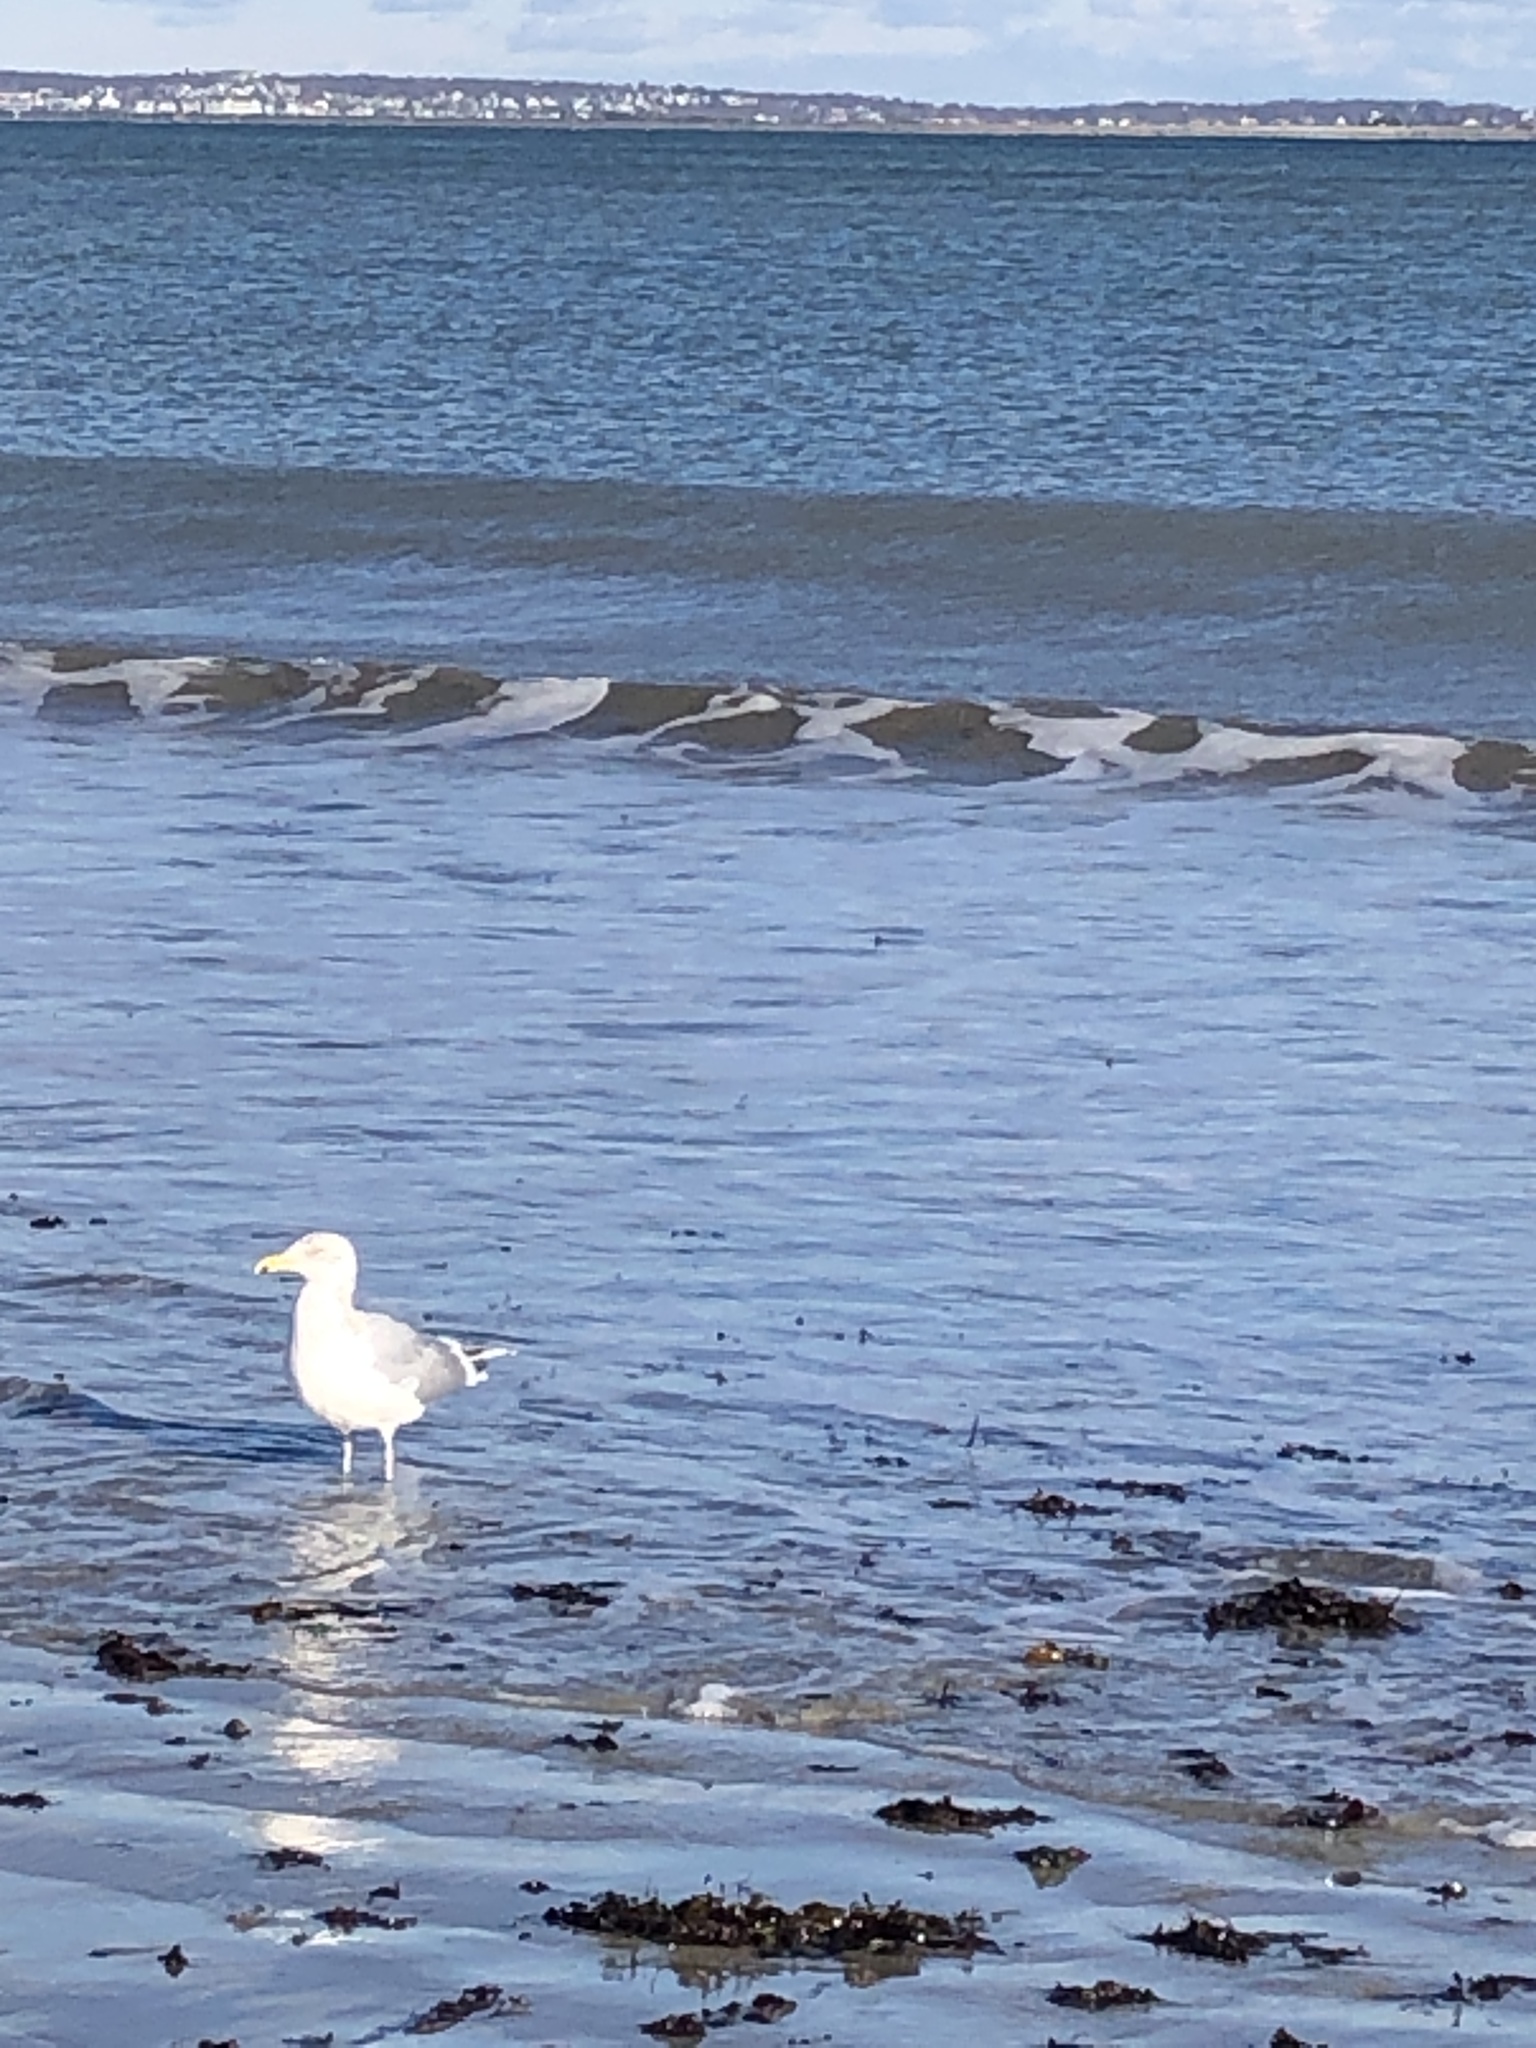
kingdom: Animalia
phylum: Chordata
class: Aves
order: Charadriiformes
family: Laridae
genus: Larus
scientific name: Larus argentatus
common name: Herring gull
